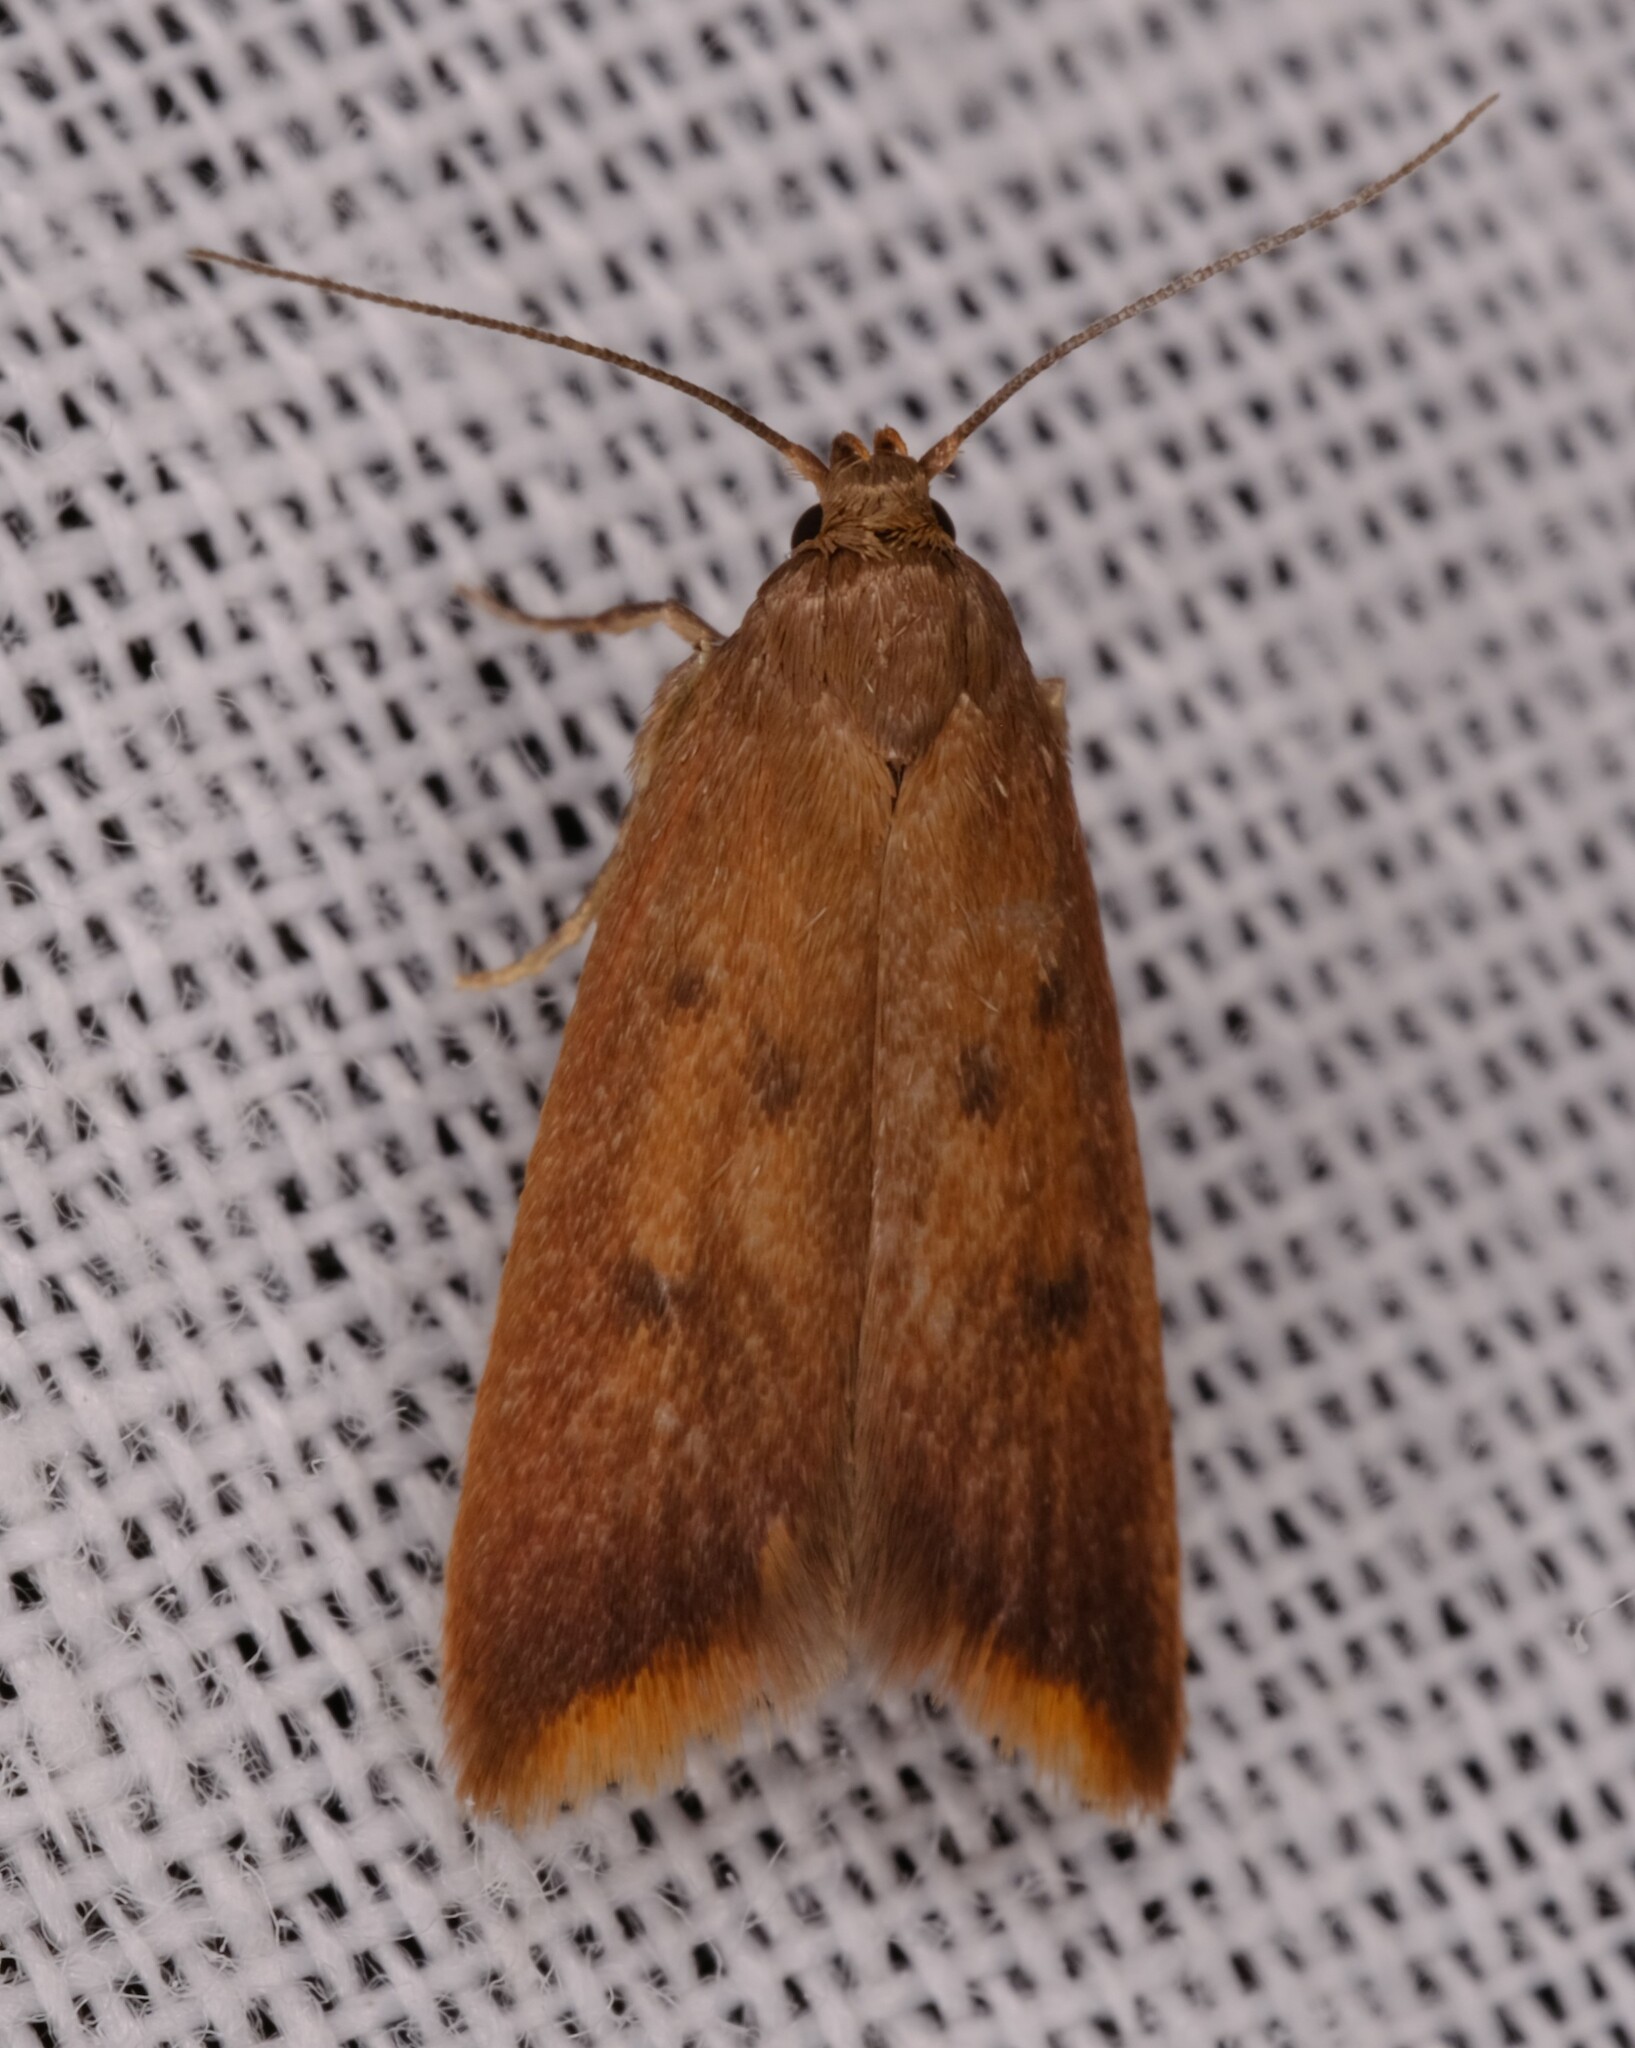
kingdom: Animalia
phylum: Arthropoda
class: Insecta
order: Lepidoptera
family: Oecophoridae
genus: Tachystola
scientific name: Tachystola acroxantha
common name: Ruddy streak
